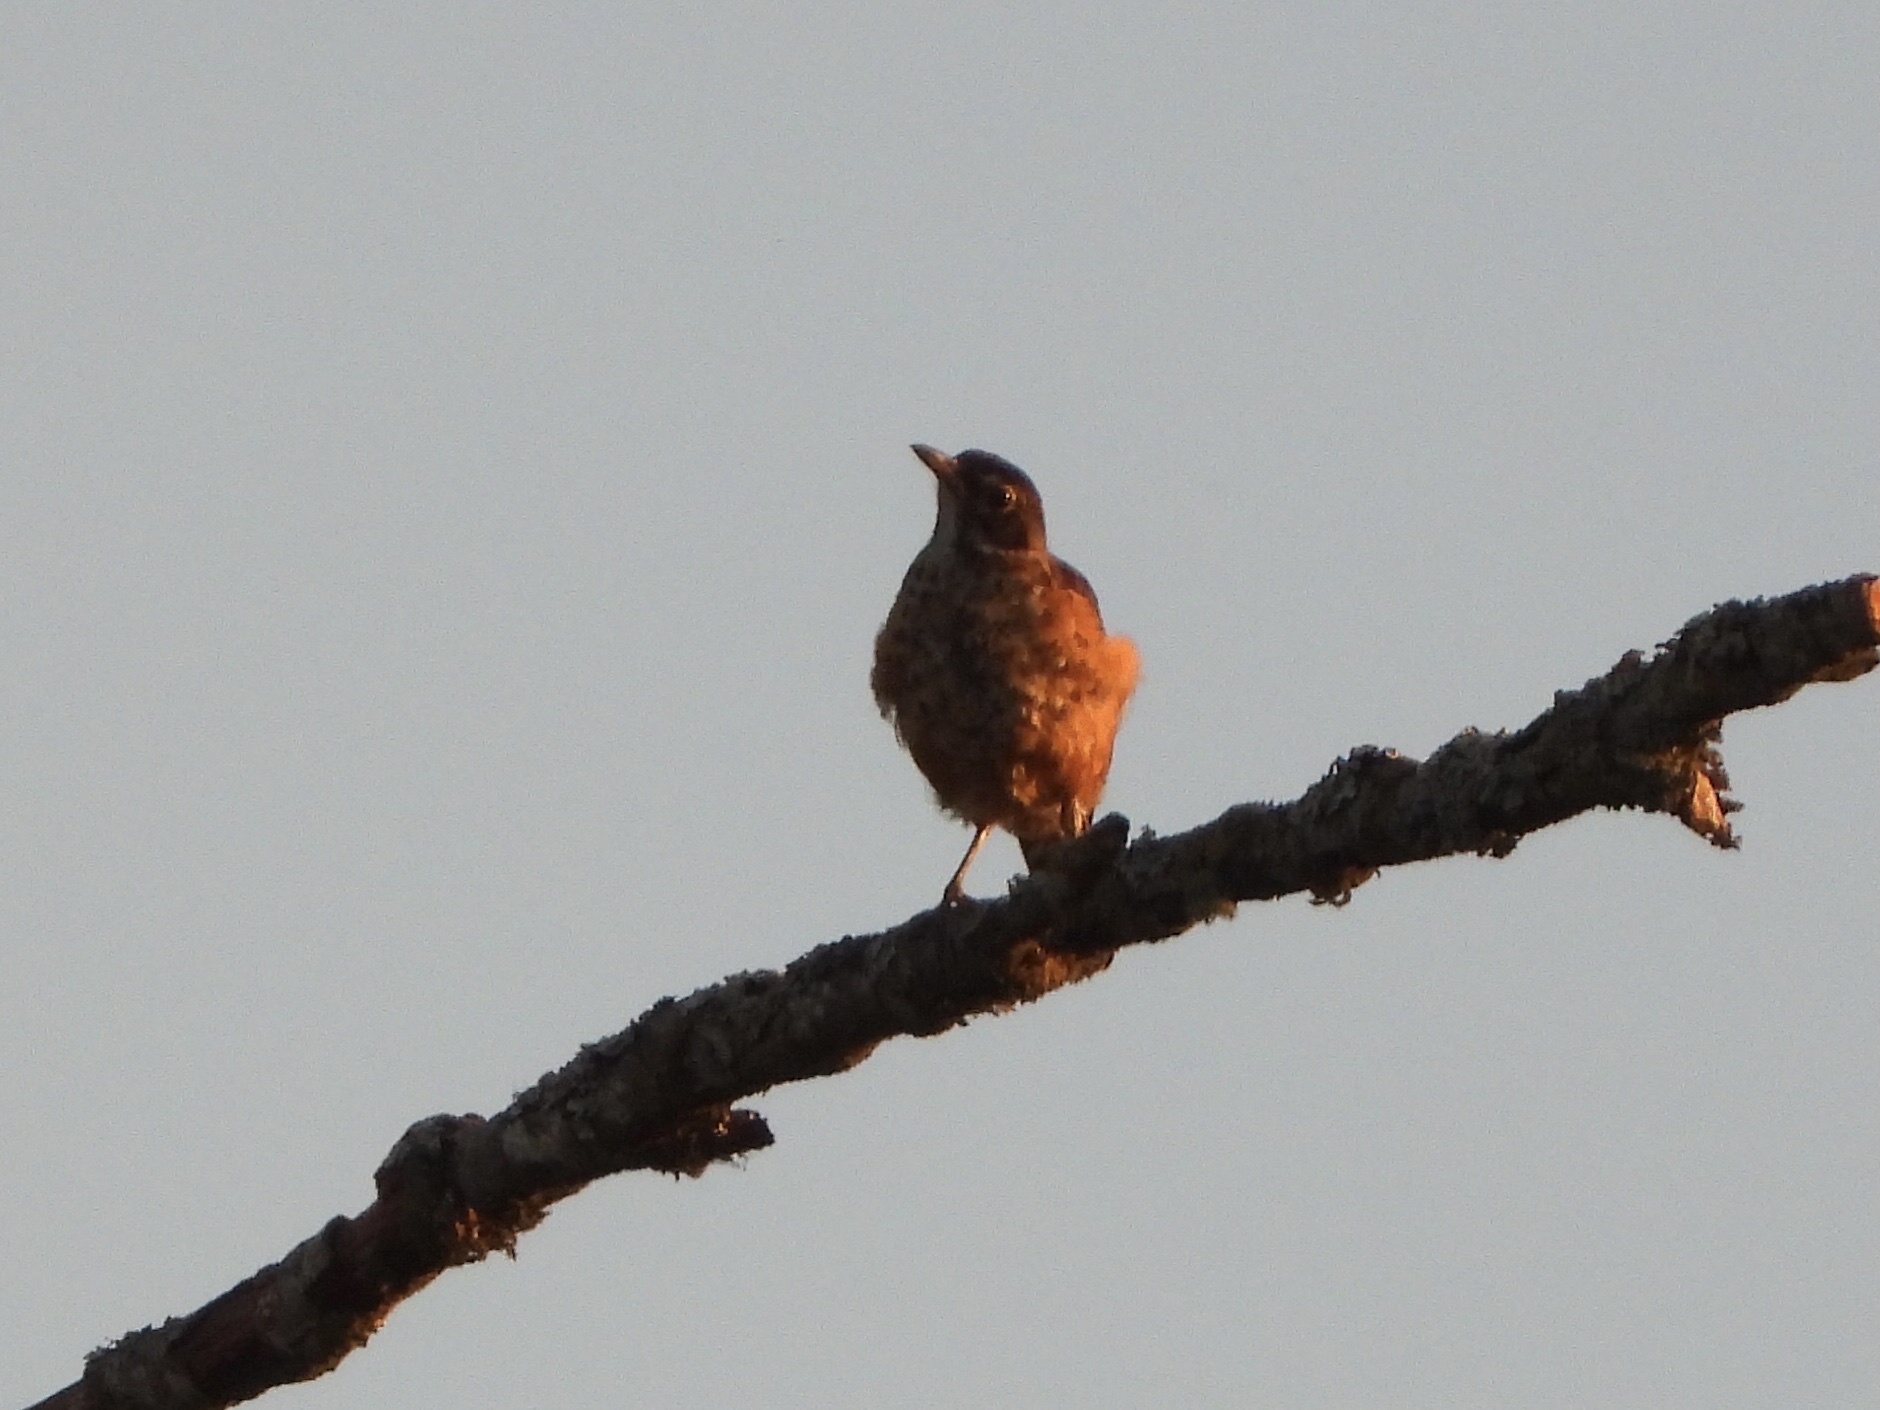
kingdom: Animalia
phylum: Chordata
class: Aves
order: Passeriformes
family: Turdidae
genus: Turdus
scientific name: Turdus migratorius
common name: American robin
